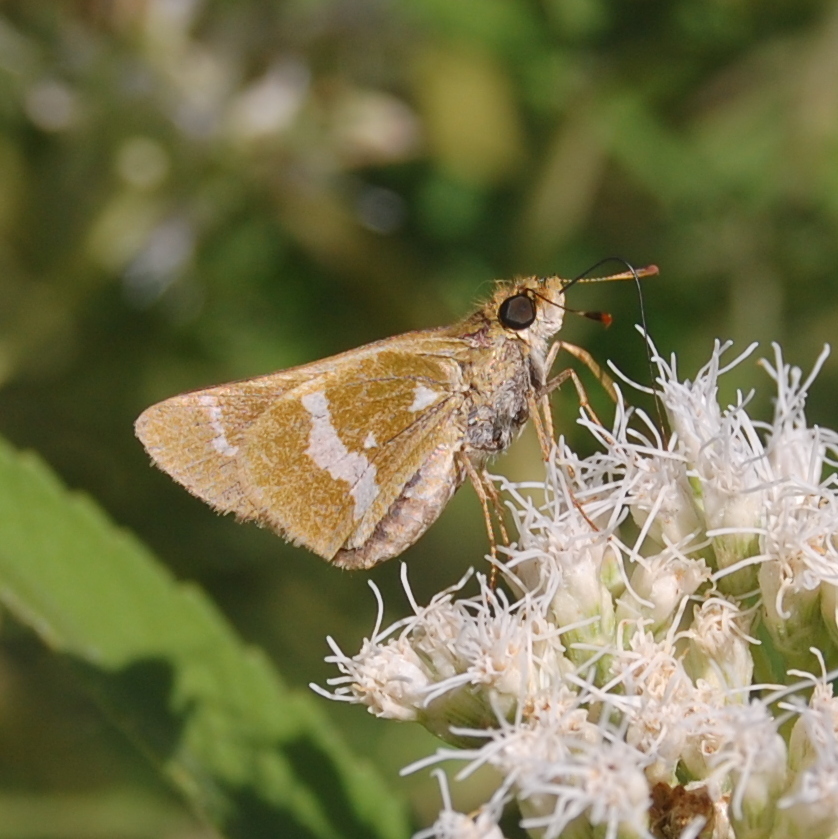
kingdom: Animalia
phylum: Arthropoda
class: Insecta
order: Lepidoptera
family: Hesperiidae
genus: Metron
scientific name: Metron zimra
